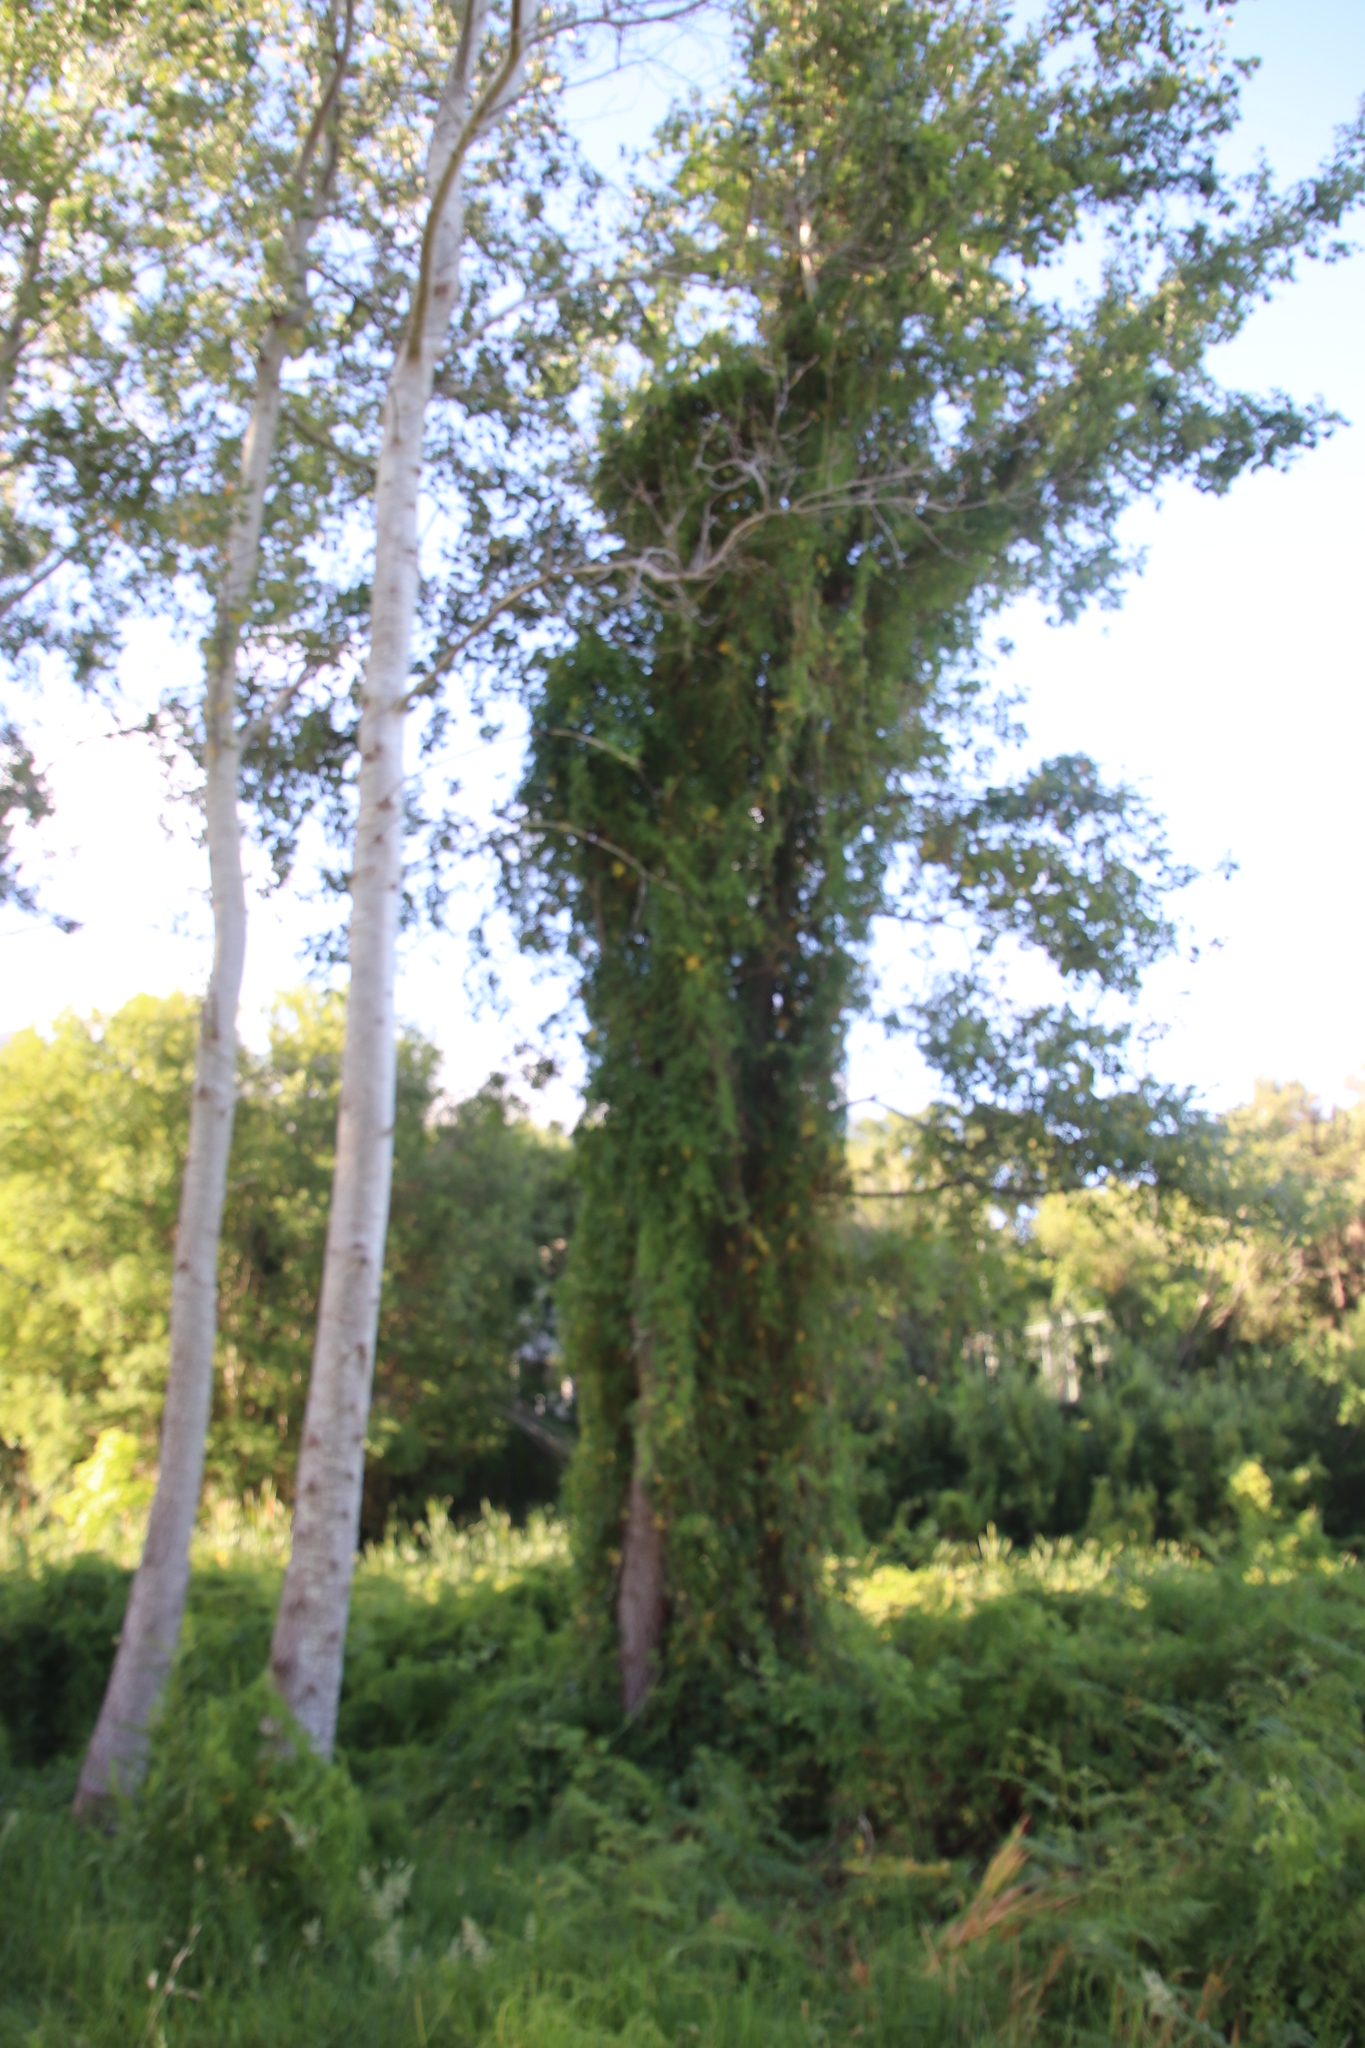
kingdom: Plantae
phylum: Tracheophyta
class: Magnoliopsida
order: Solanales
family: Convolvulaceae
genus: Ipomoea
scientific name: Ipomoea cairica
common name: Mile a minute vine
